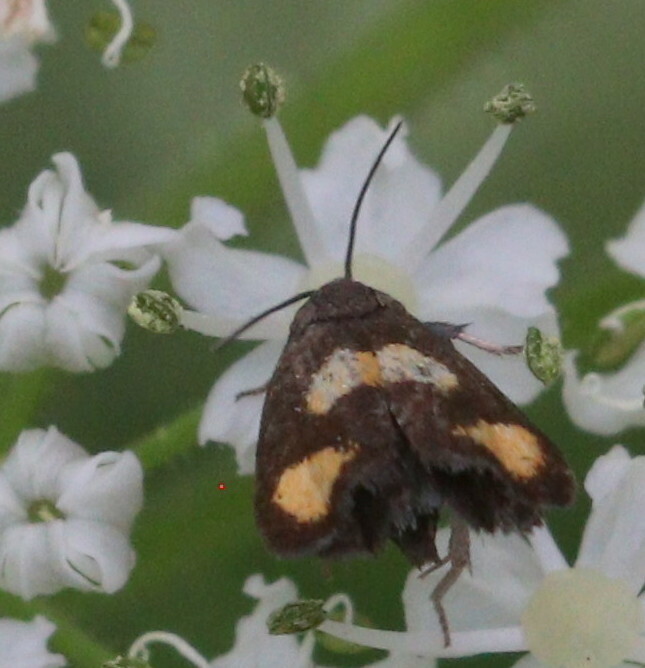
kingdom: Animalia
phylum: Arthropoda
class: Insecta
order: Lepidoptera
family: Tortricidae
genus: Pammene
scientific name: Pammene aurana
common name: Orange-spot piercer
